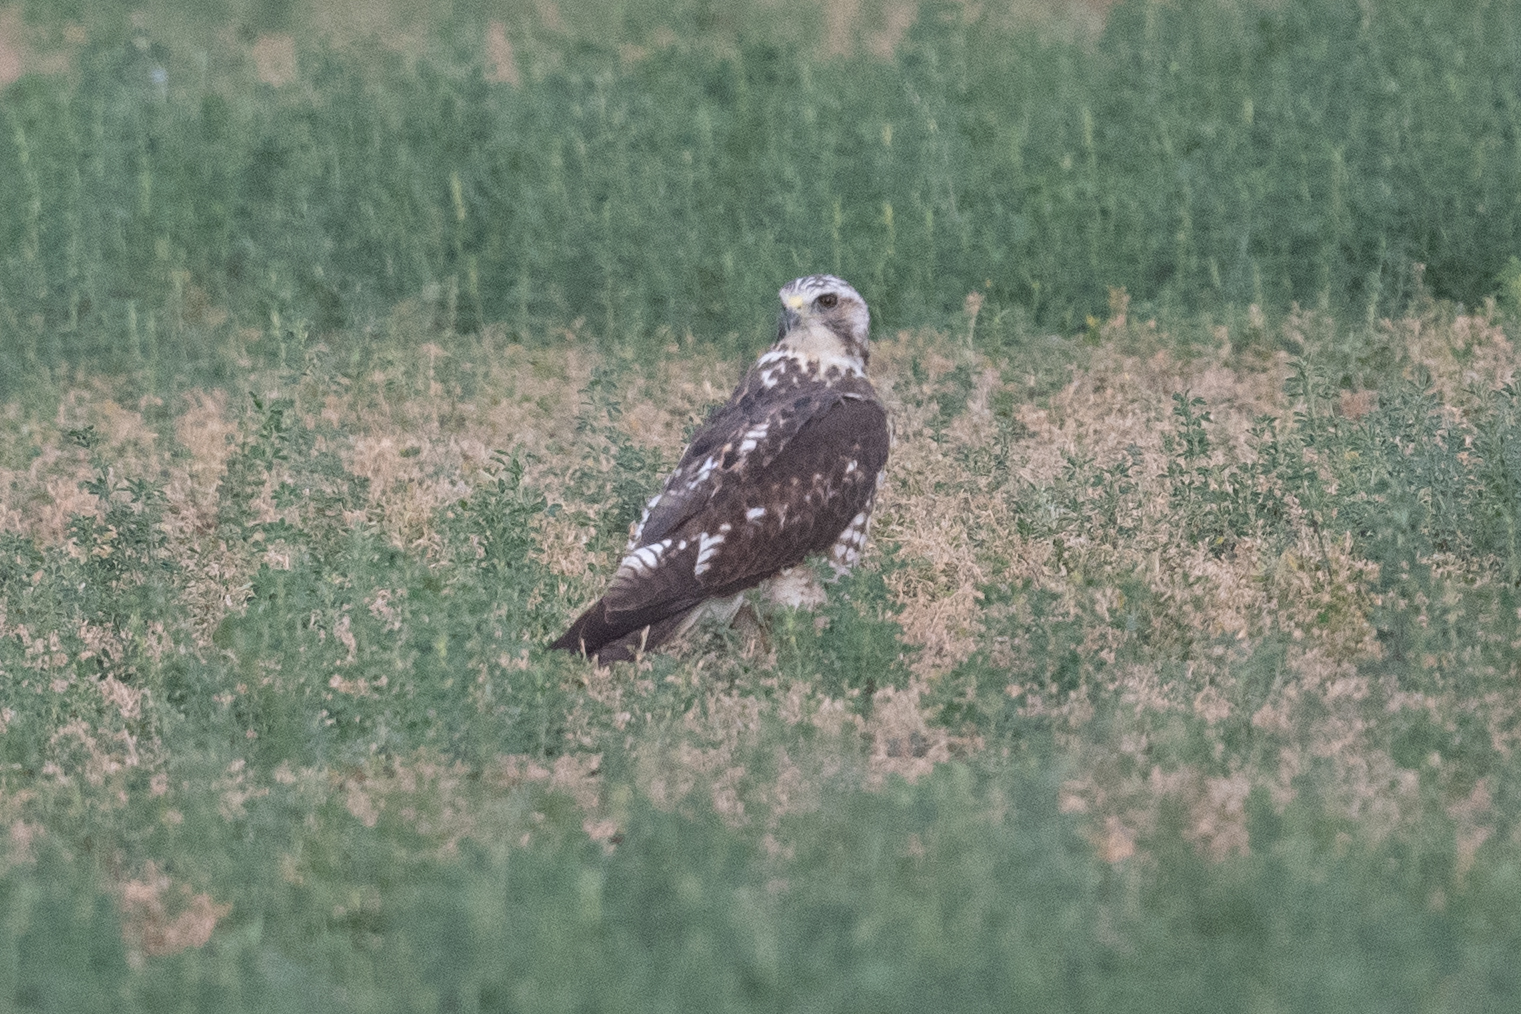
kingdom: Animalia
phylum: Chordata
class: Aves
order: Accipitriformes
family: Accipitridae
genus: Buteo
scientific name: Buteo swainsoni
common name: Swainson's hawk
